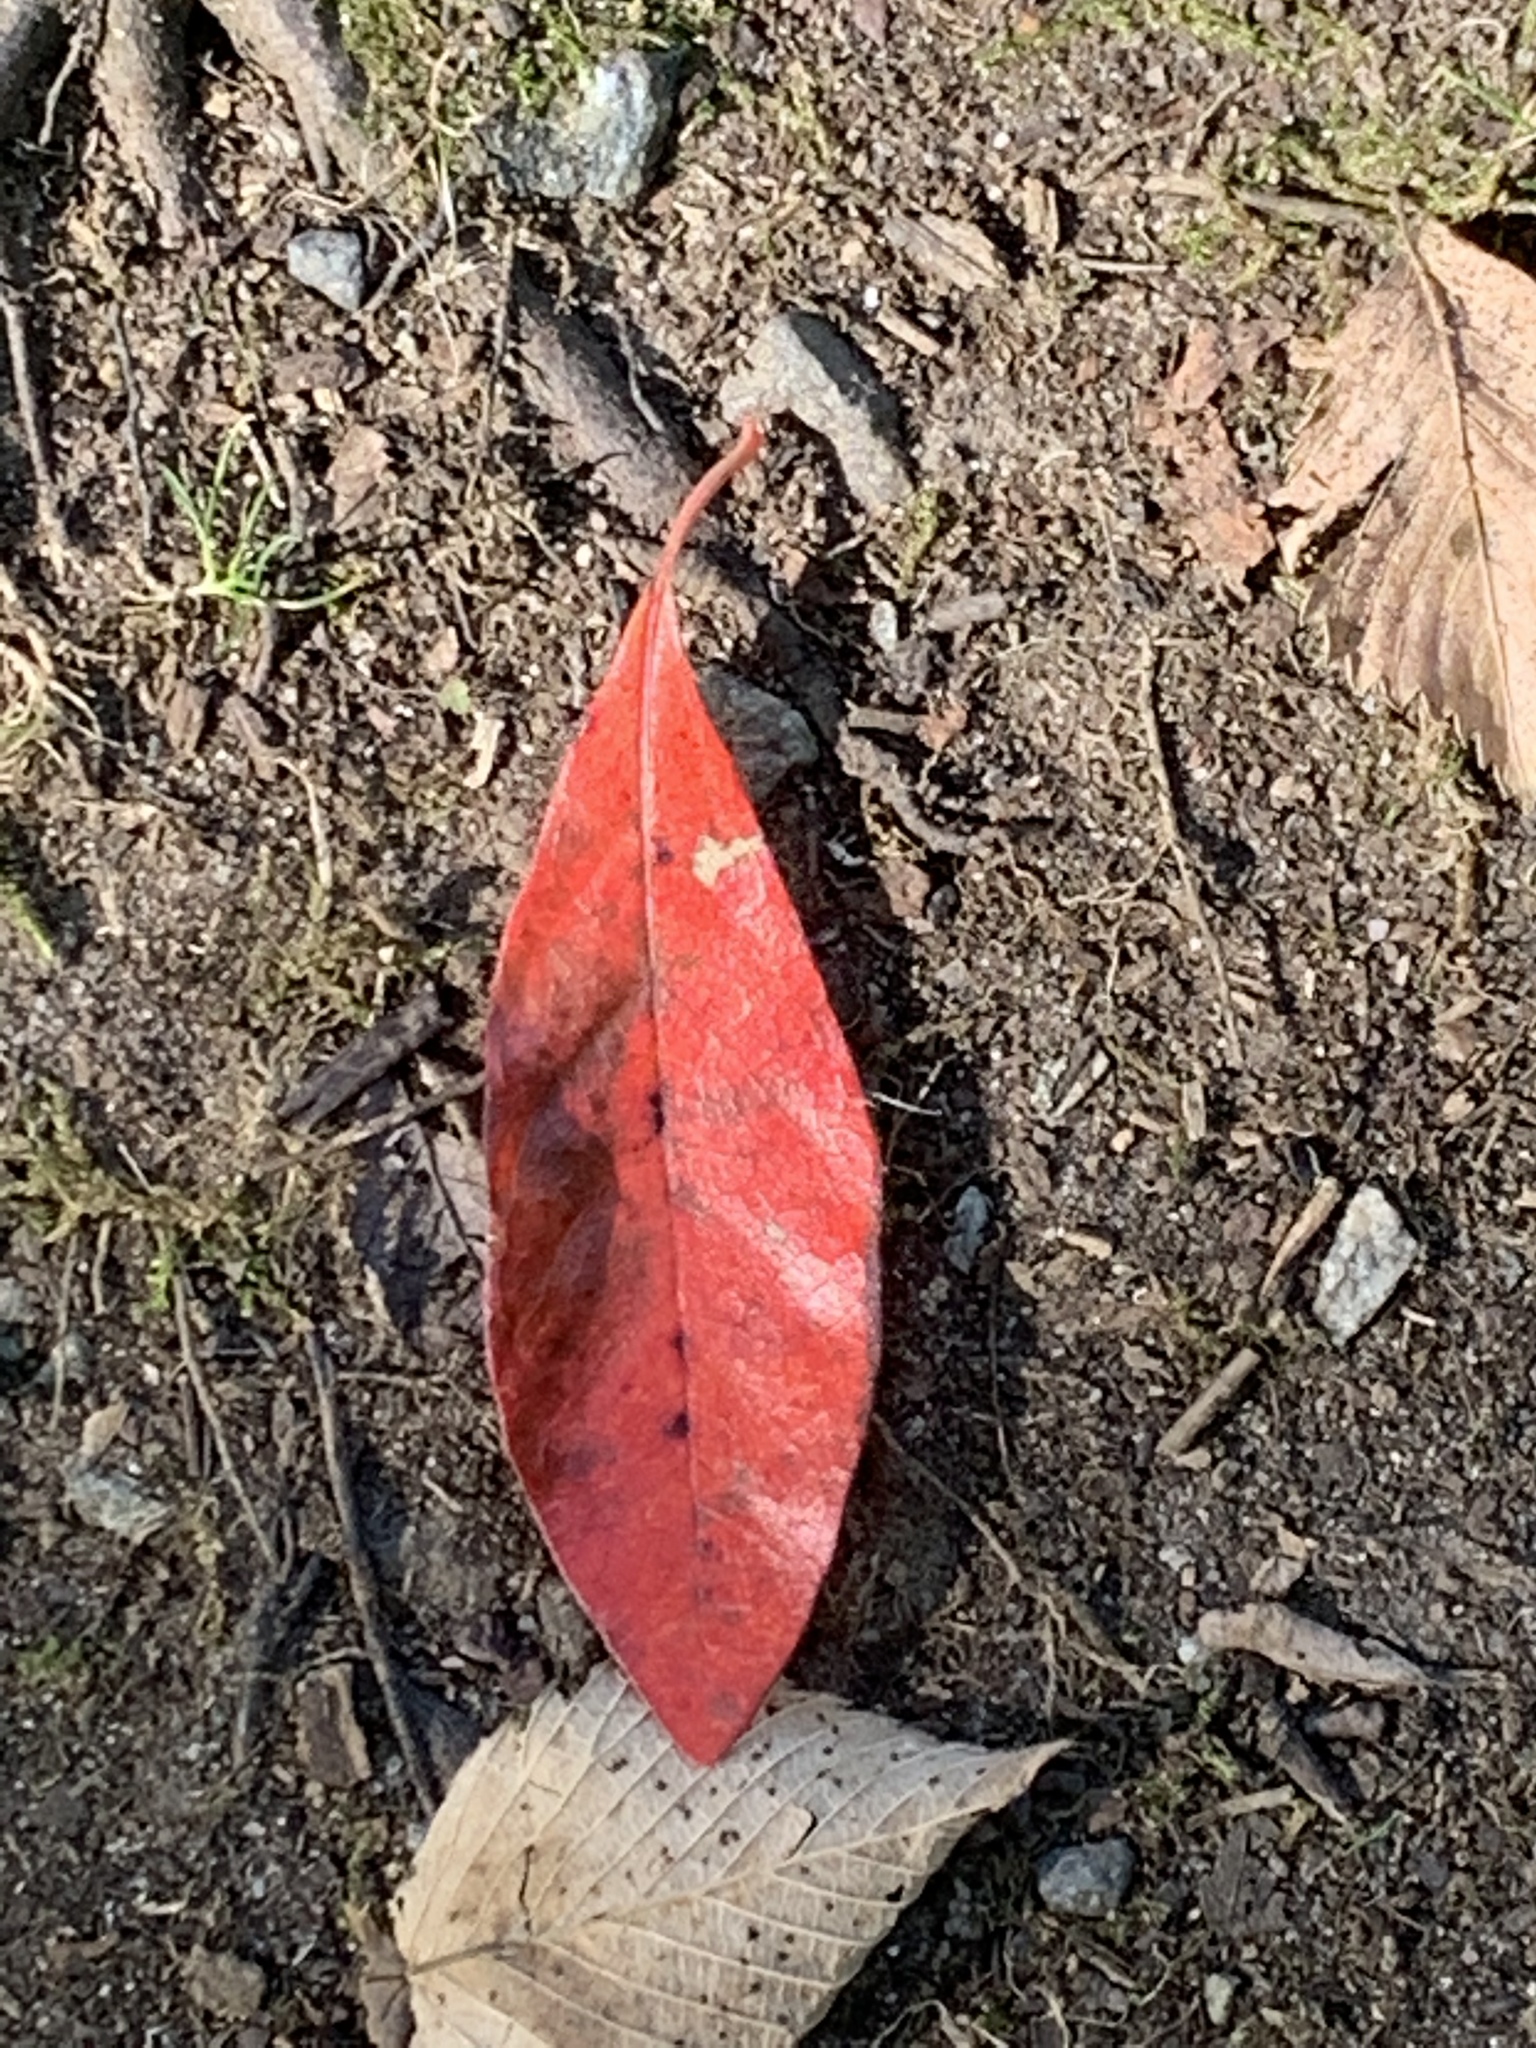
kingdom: Plantae
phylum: Tracheophyta
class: Magnoliopsida
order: Cornales
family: Nyssaceae
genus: Nyssa
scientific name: Nyssa sylvatica
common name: Black tupelo
